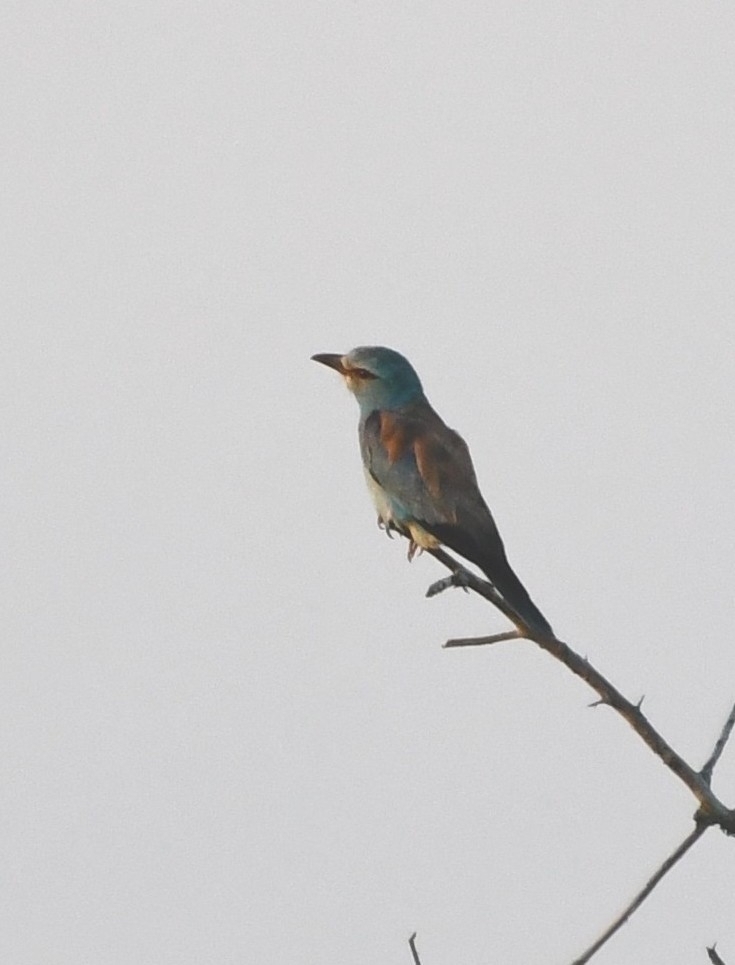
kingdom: Animalia
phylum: Chordata
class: Aves
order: Coraciiformes
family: Coraciidae
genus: Coracias
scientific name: Coracias garrulus
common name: European roller
